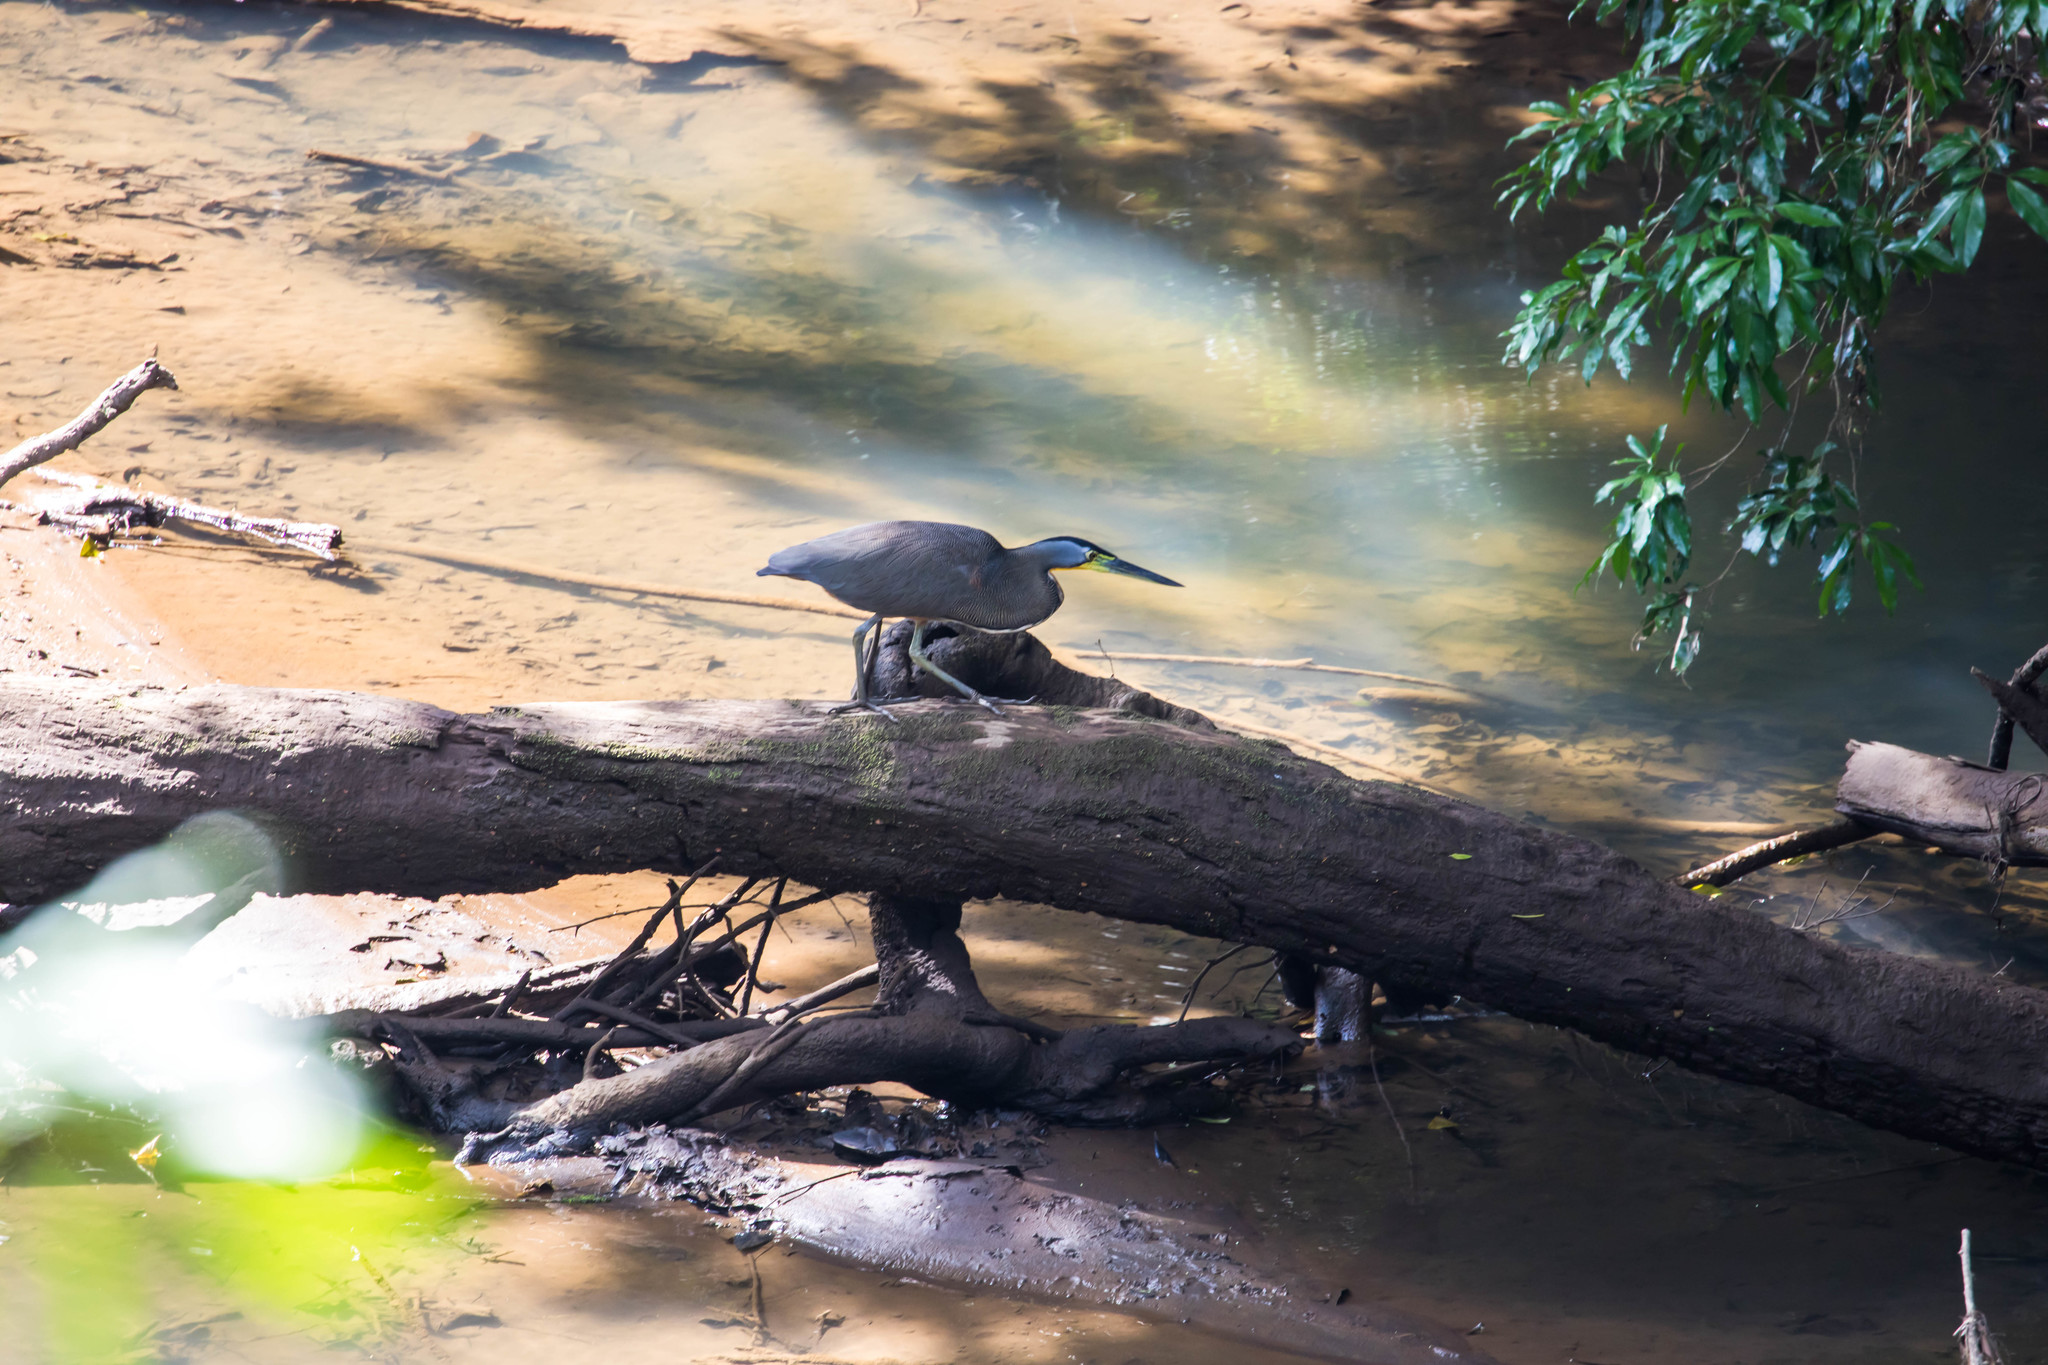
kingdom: Animalia
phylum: Chordata
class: Aves
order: Pelecaniformes
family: Ardeidae
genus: Tigrisoma
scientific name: Tigrisoma mexicanum
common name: Bare-throated tiger-heron
